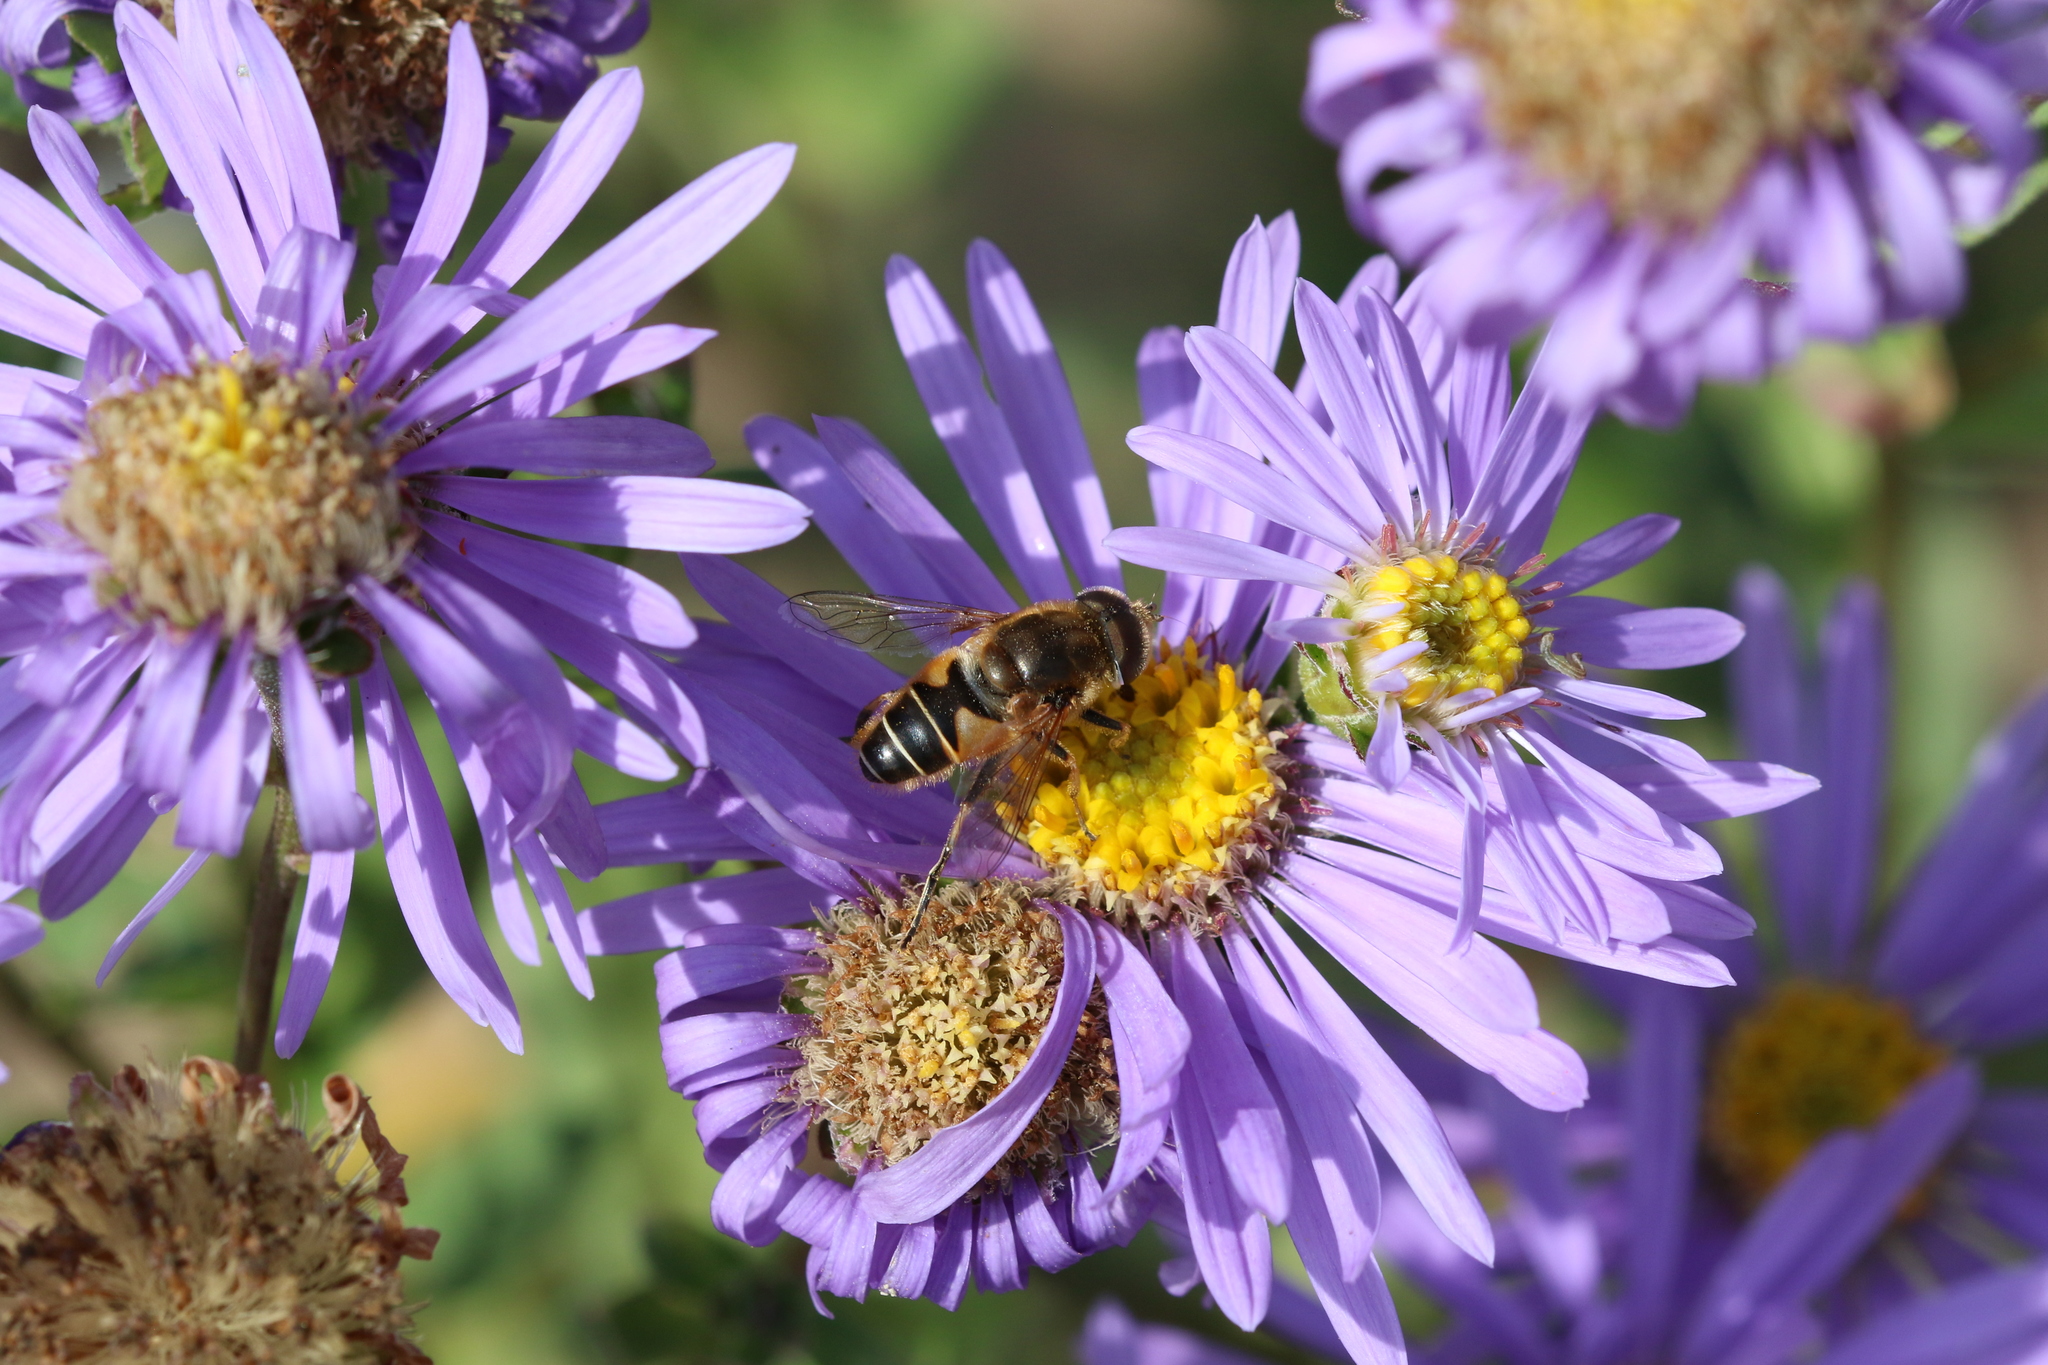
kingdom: Animalia
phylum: Arthropoda
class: Insecta
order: Diptera
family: Syrphidae
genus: Eristalis
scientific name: Eristalis nemorum
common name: Orange-spined drone fly
